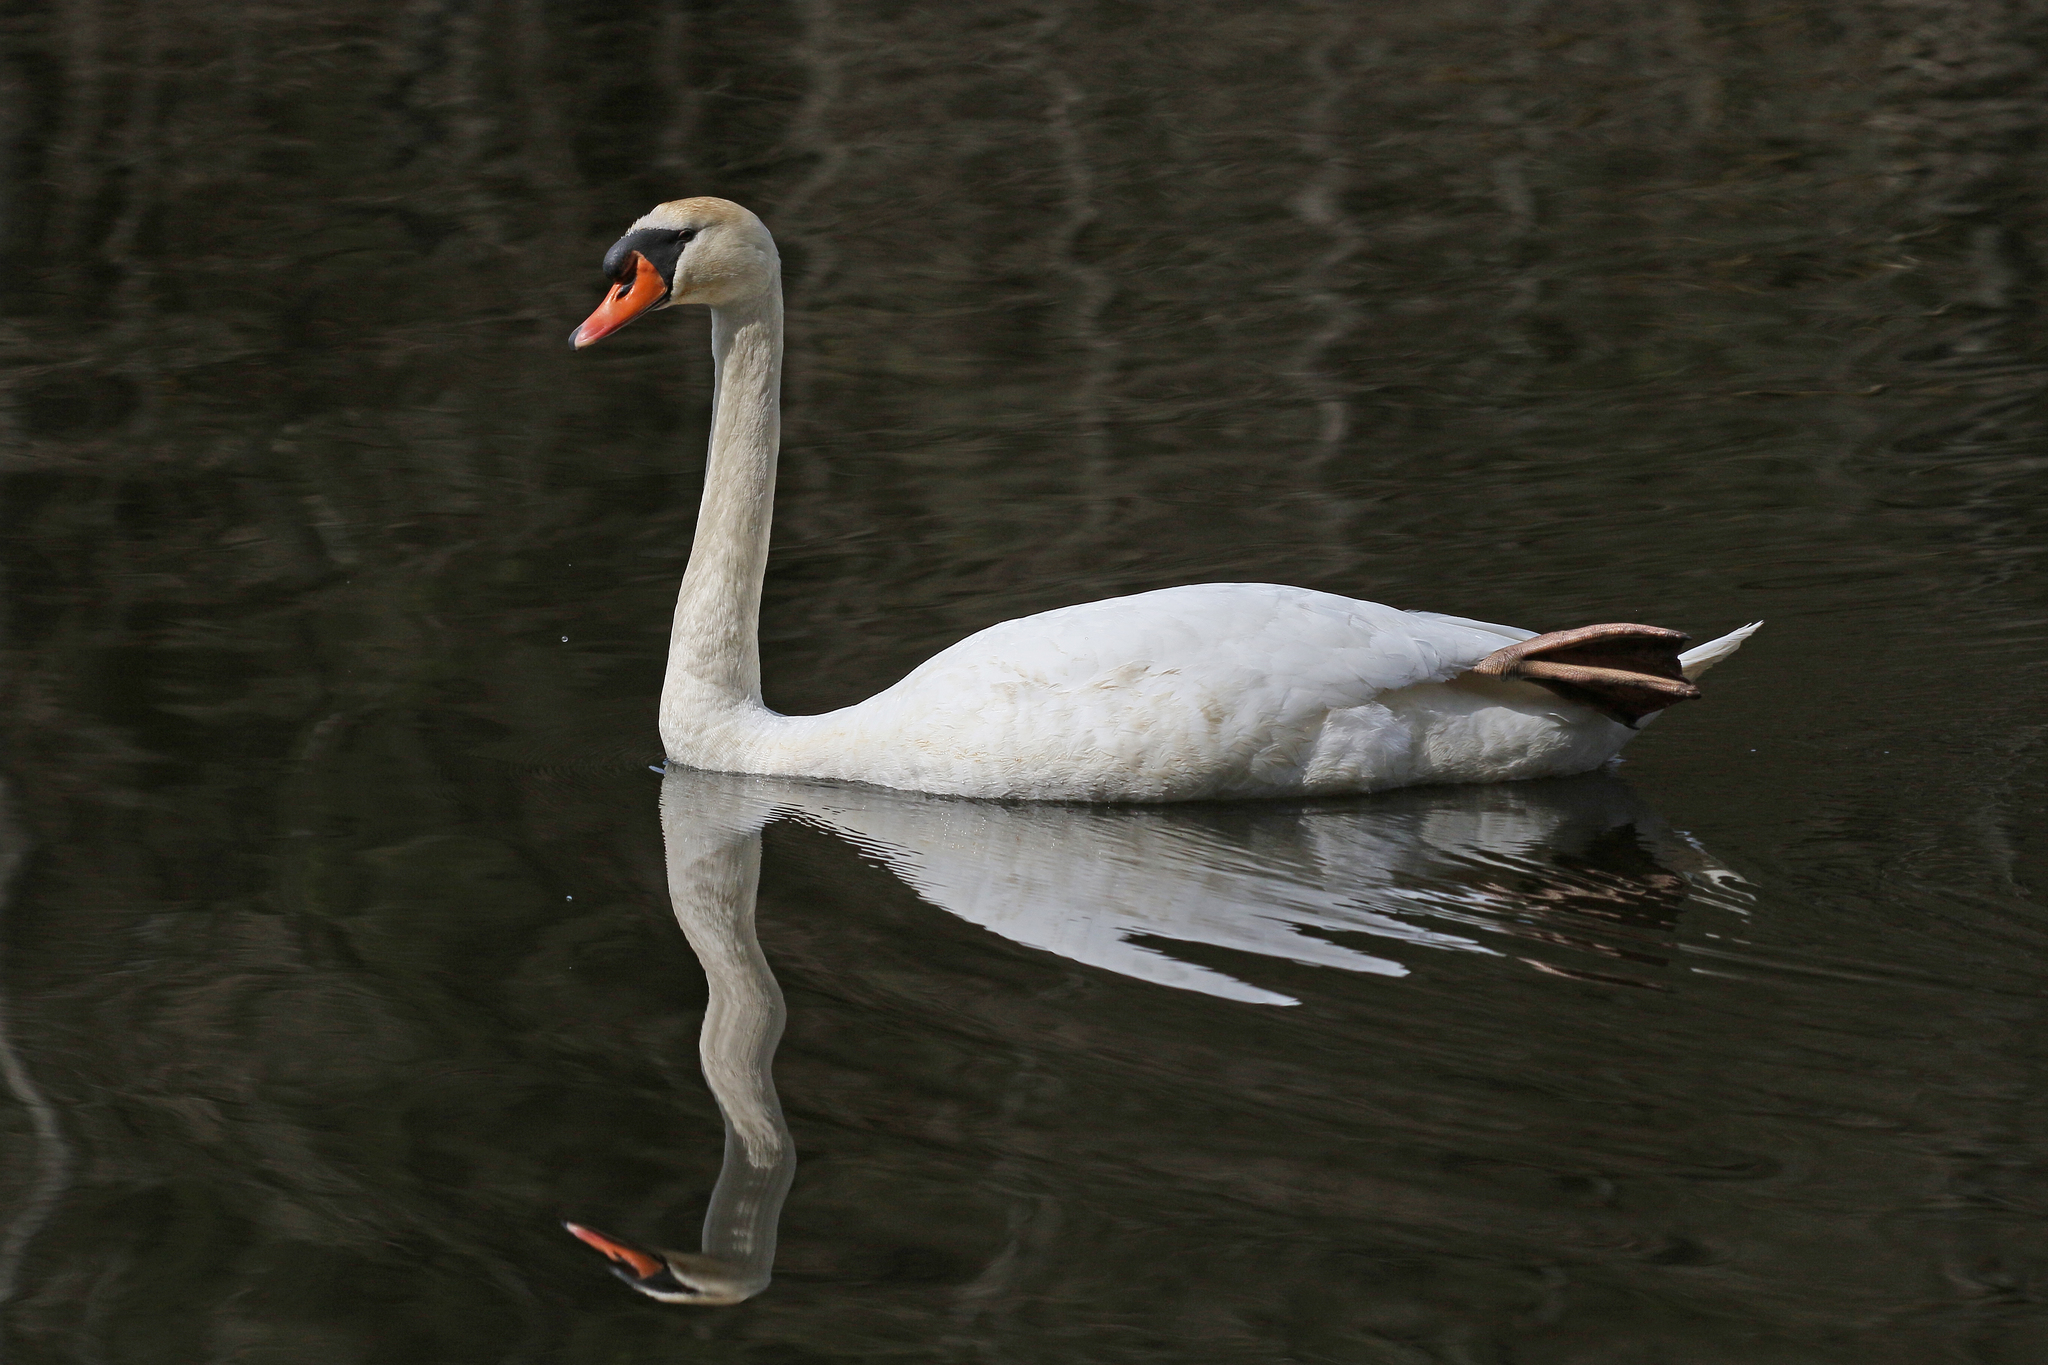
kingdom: Animalia
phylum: Chordata
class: Aves
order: Anseriformes
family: Anatidae
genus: Cygnus
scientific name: Cygnus olor
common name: Mute swan
